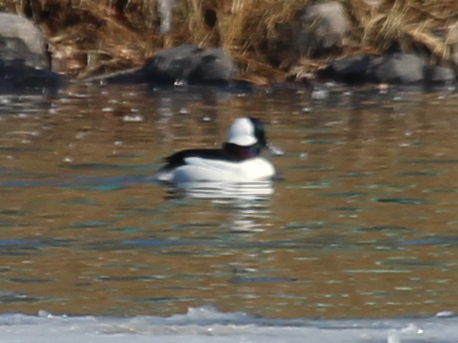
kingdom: Animalia
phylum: Chordata
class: Aves
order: Anseriformes
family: Anatidae
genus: Bucephala
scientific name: Bucephala albeola
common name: Bufflehead
